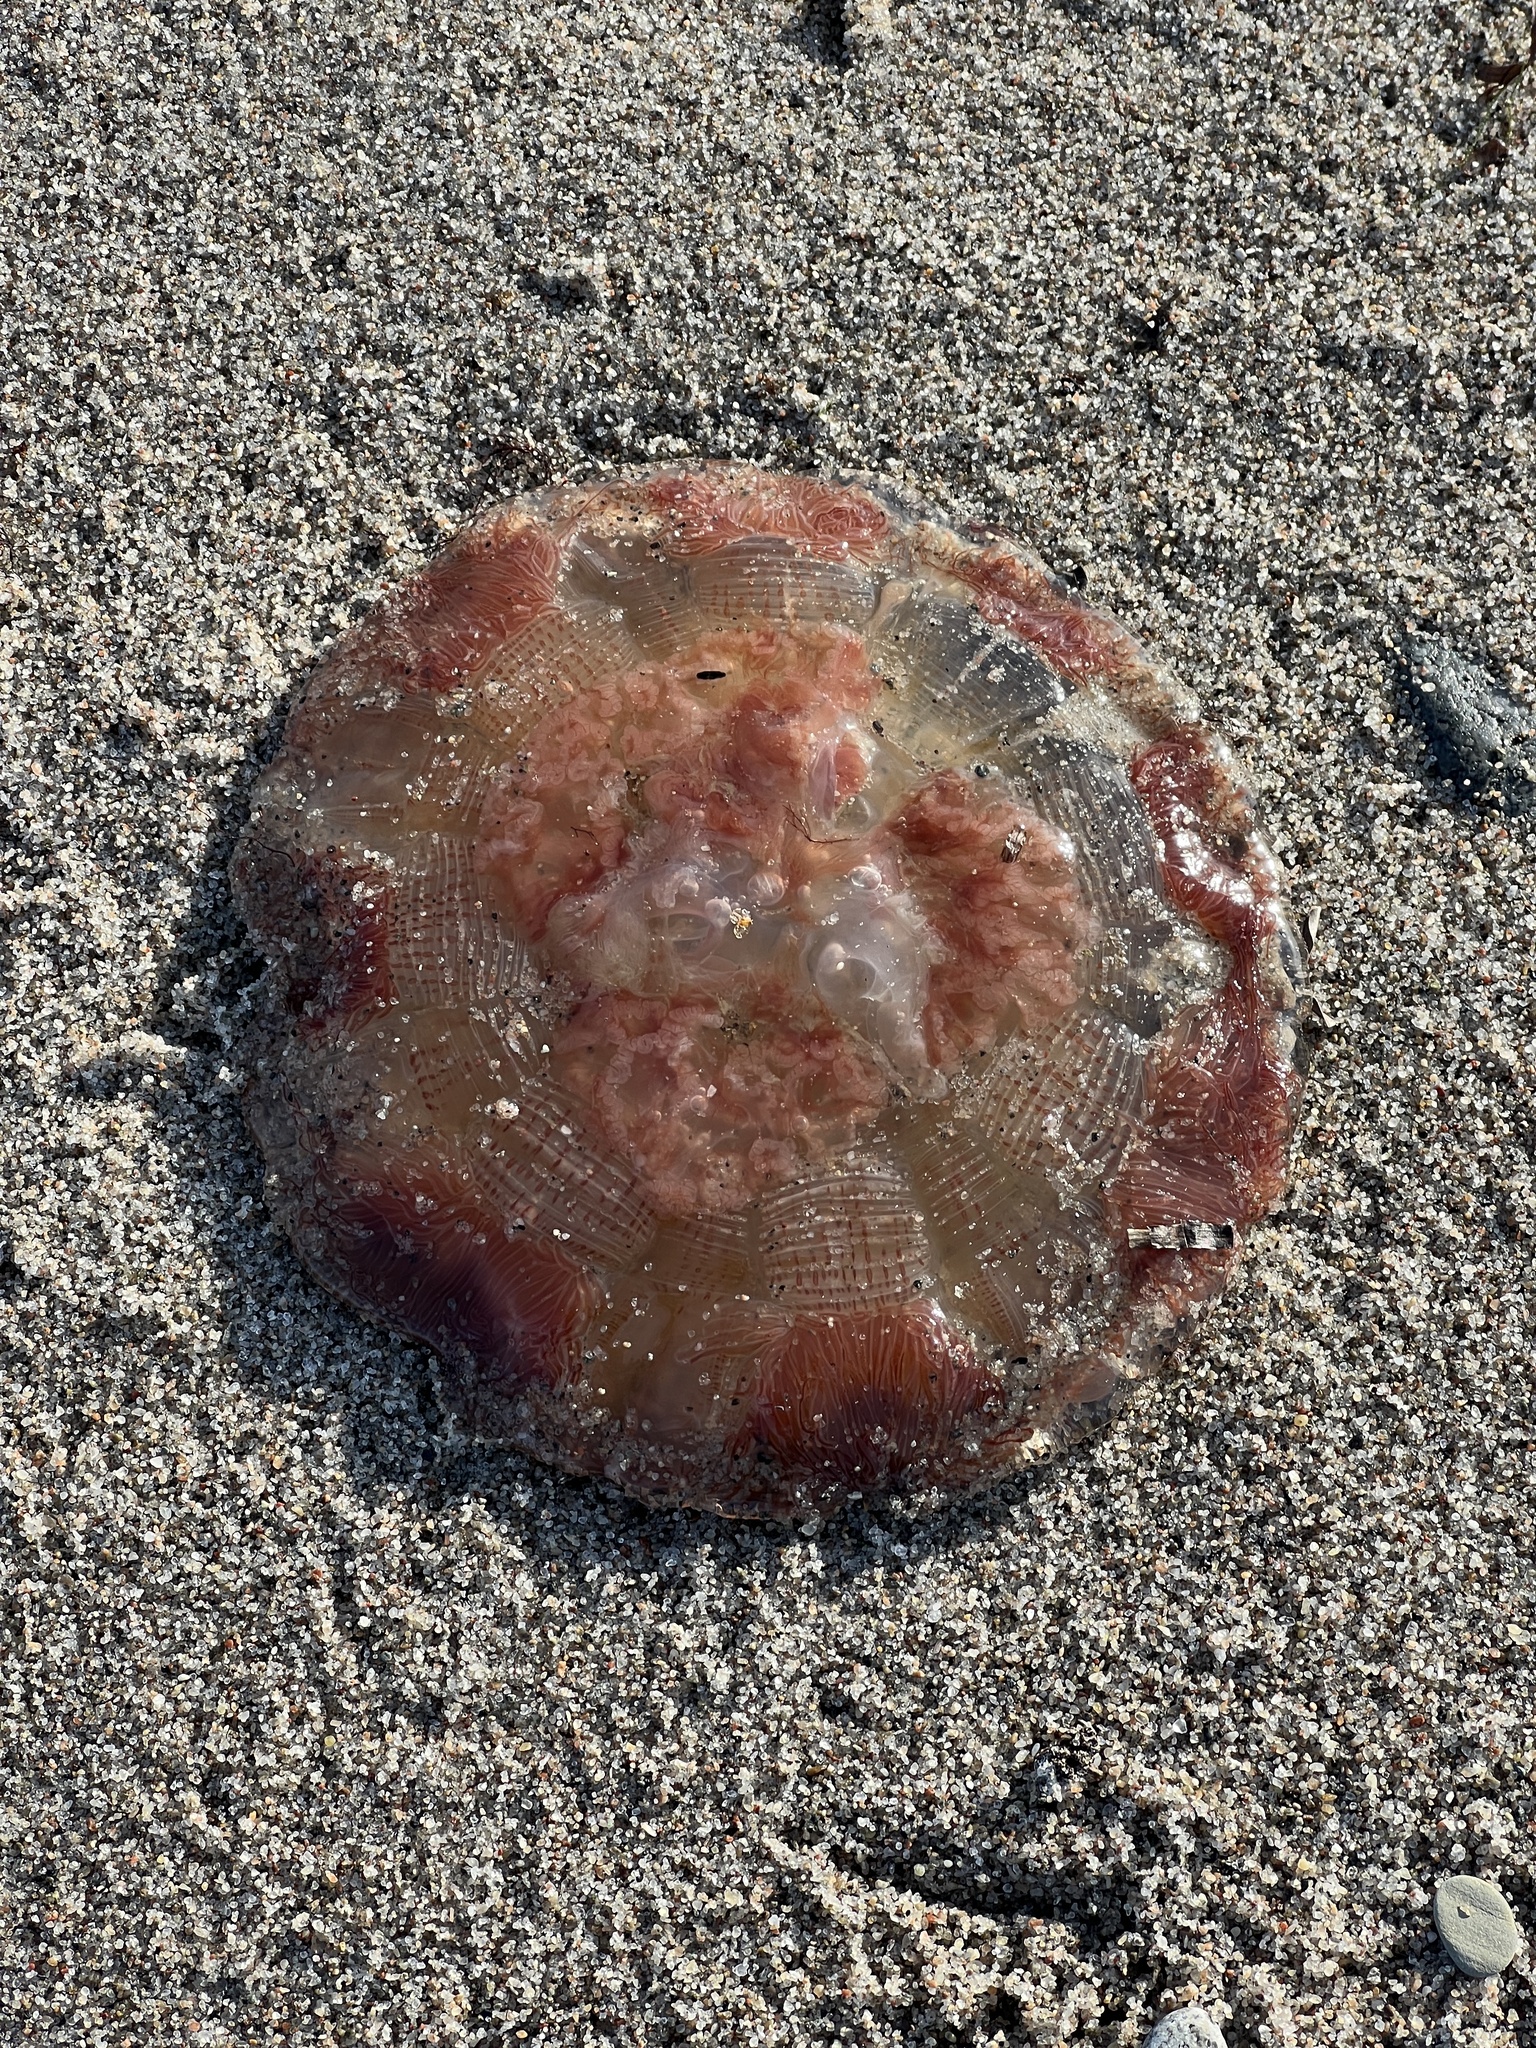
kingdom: Animalia
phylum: Cnidaria
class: Scyphozoa
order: Semaeostomeae
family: Cyaneidae
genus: Cyanea
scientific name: Cyanea capillata
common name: Lion's mane jellyfish
